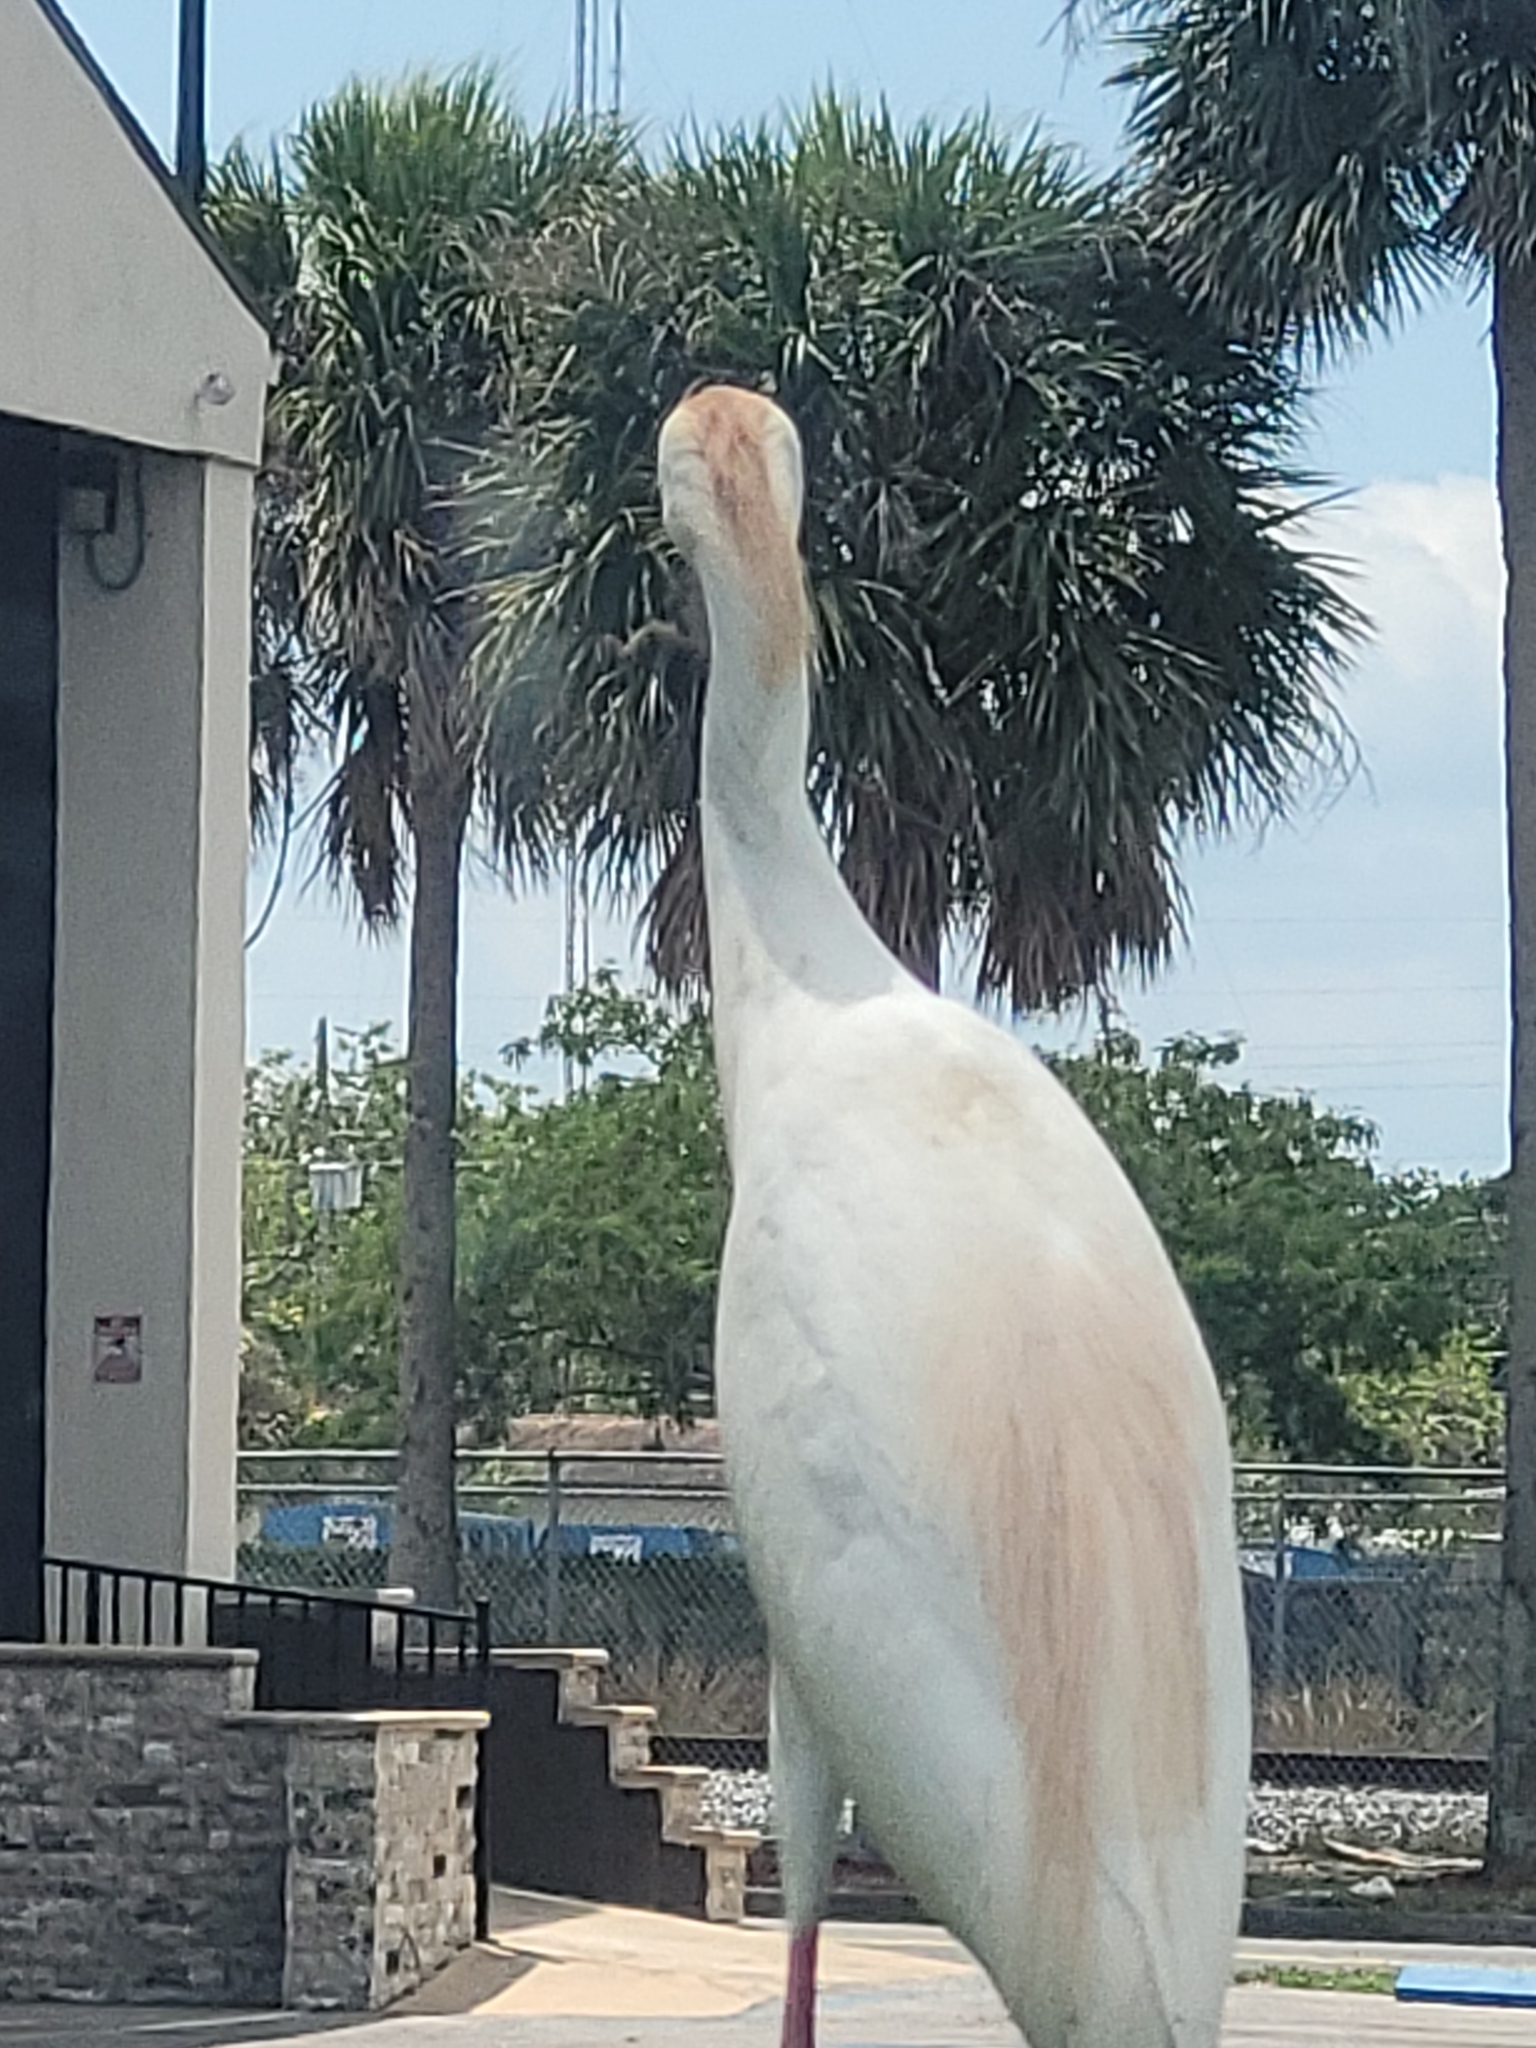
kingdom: Animalia
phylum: Chordata
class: Aves
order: Pelecaniformes
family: Ardeidae
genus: Bubulcus
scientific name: Bubulcus ibis
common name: Cattle egret
